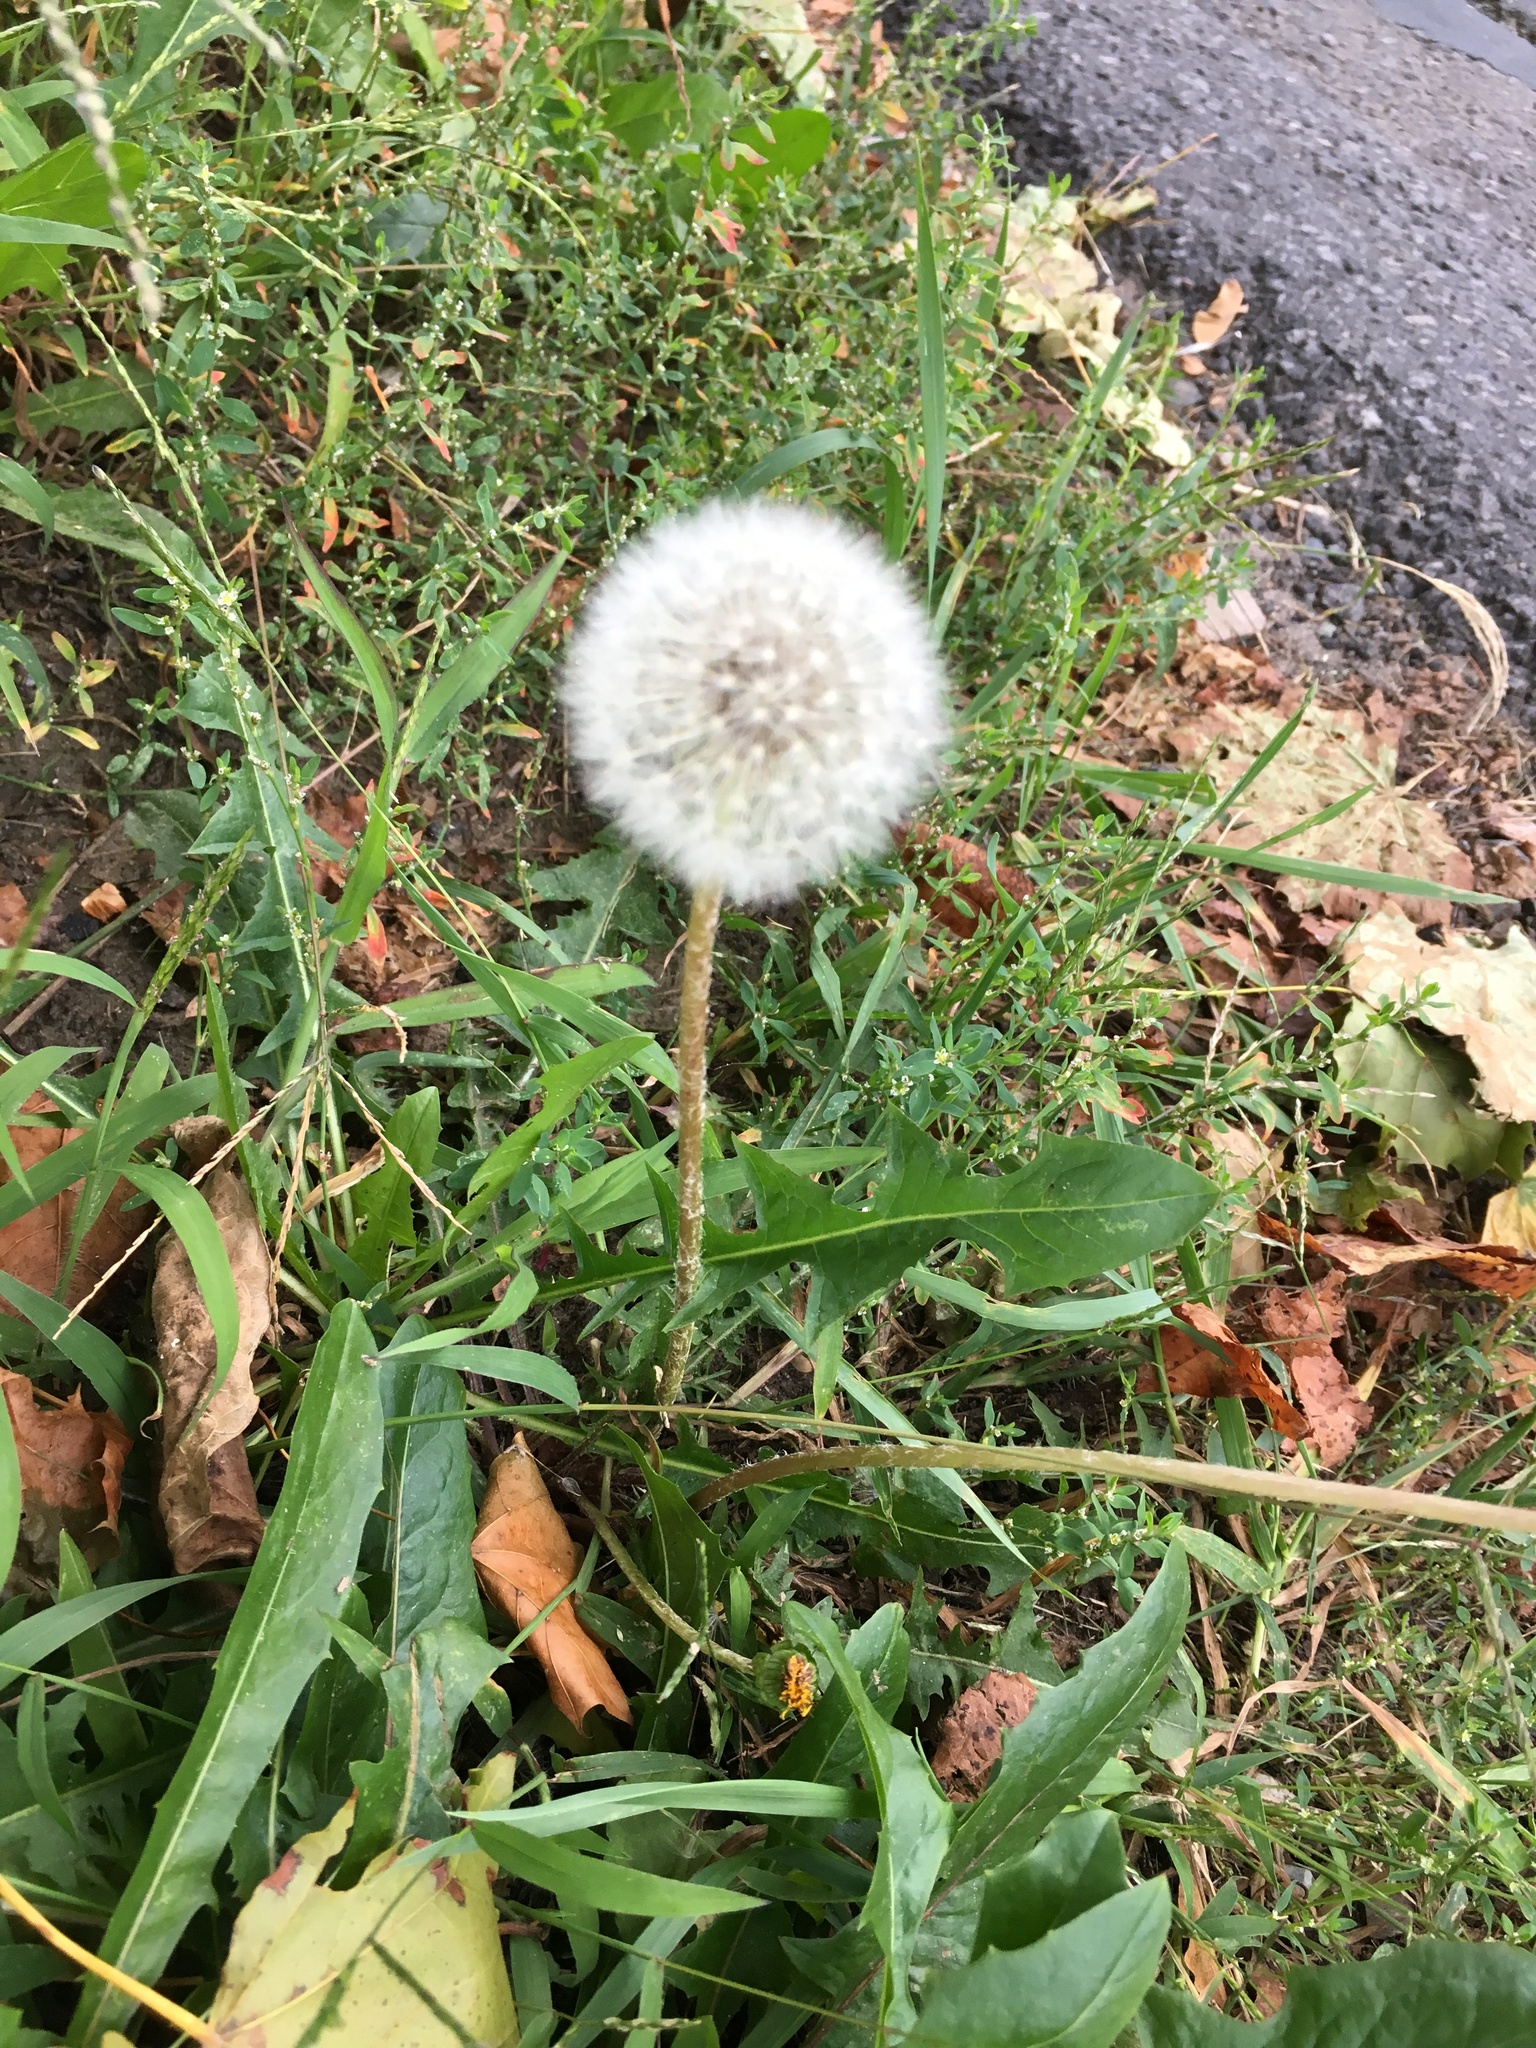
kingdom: Plantae
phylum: Tracheophyta
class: Magnoliopsida
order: Asterales
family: Asteraceae
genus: Taraxacum
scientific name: Taraxacum officinale
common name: Common dandelion
